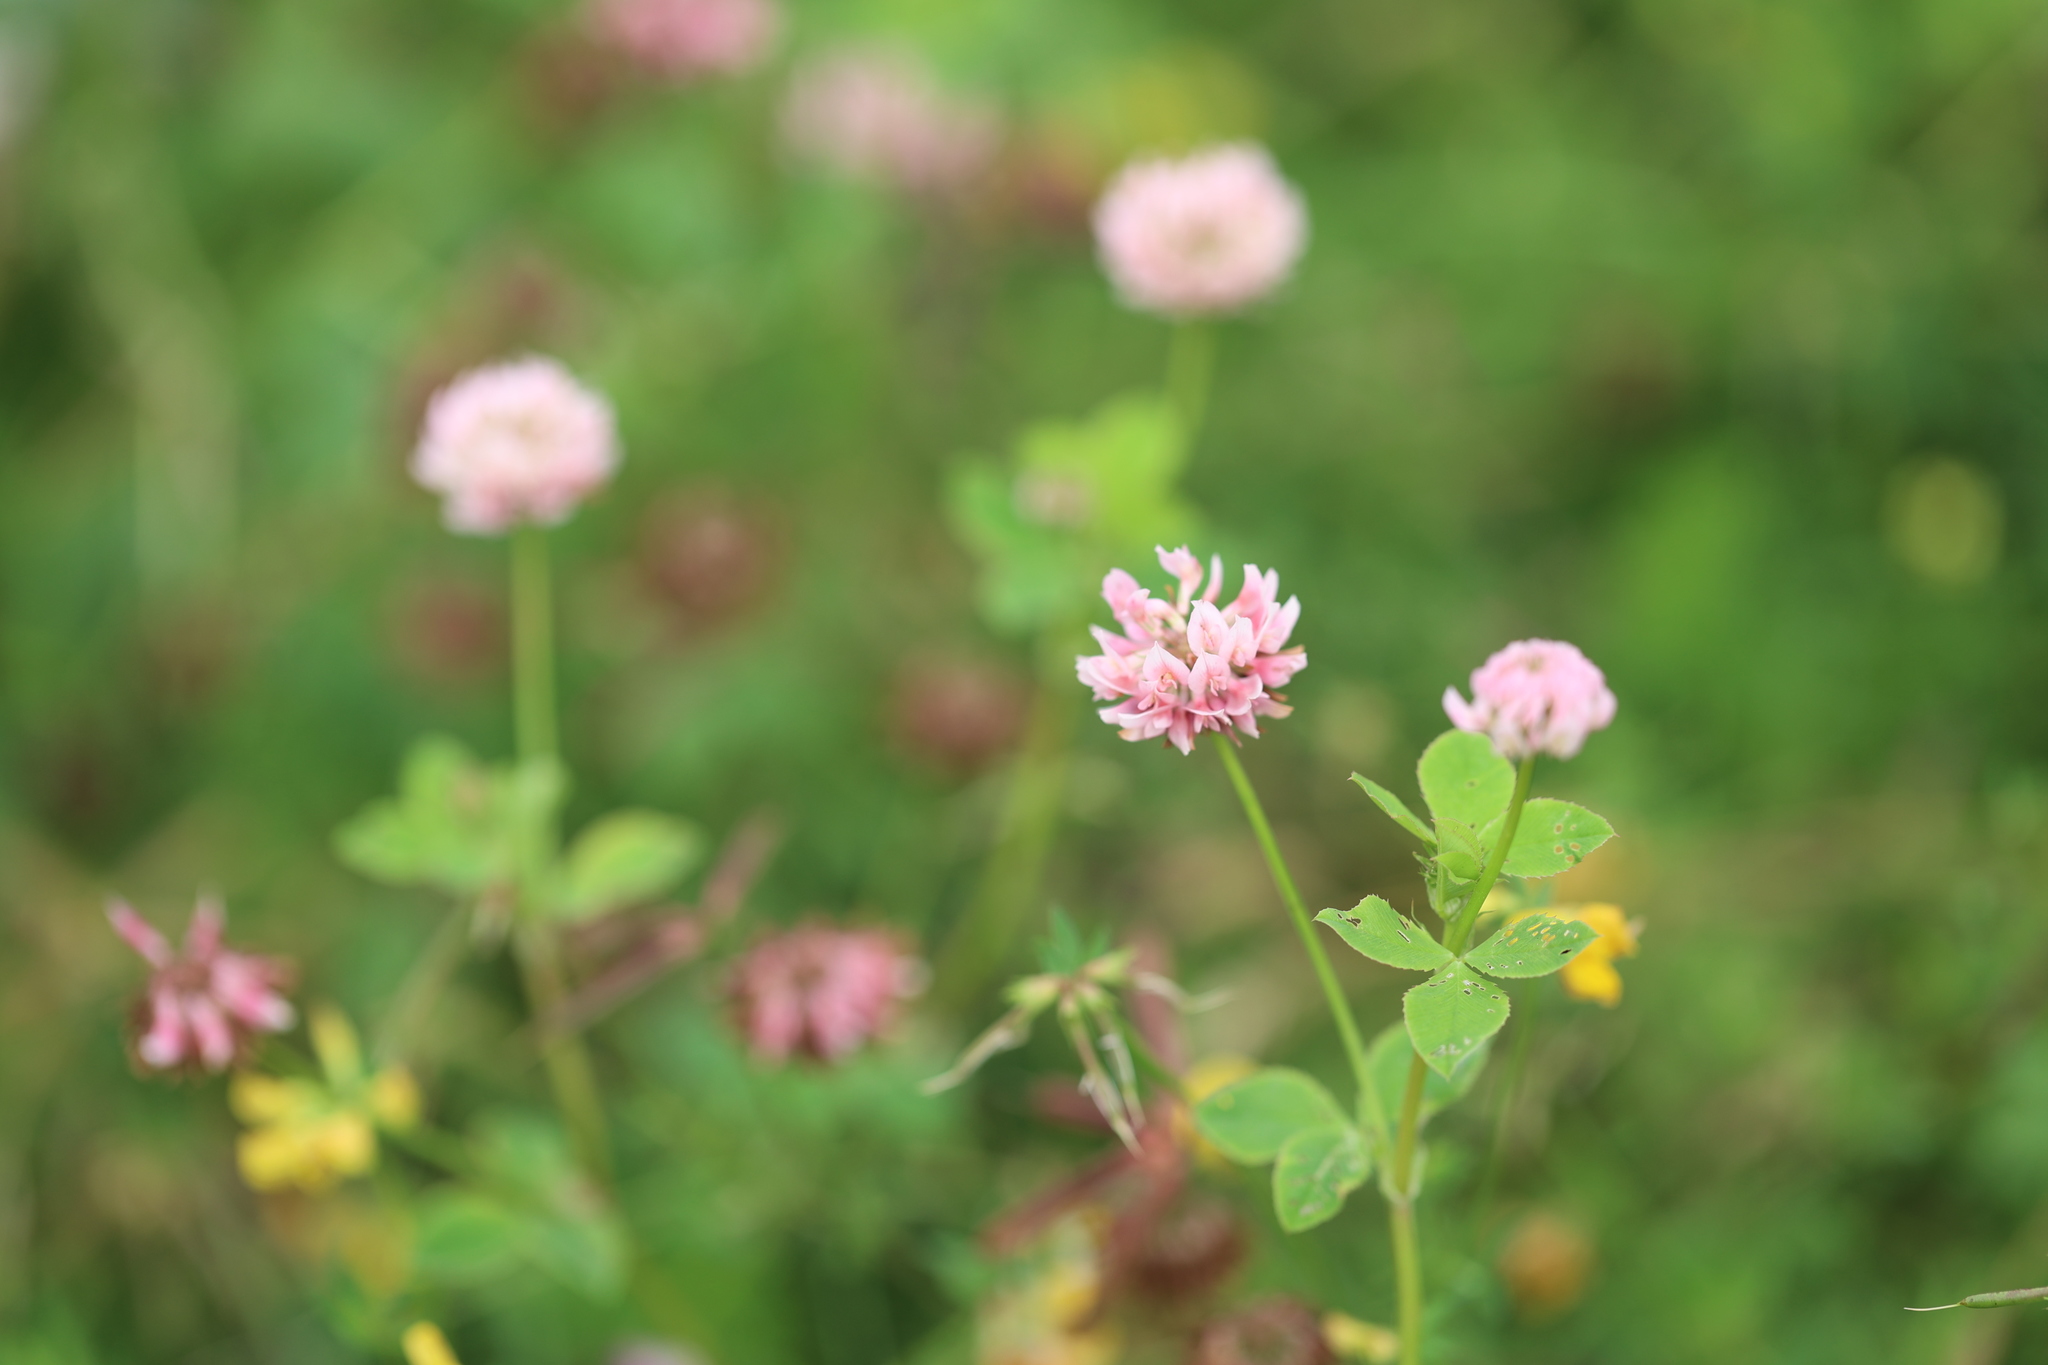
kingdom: Plantae
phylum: Tracheophyta
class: Magnoliopsida
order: Fabales
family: Fabaceae
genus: Trifolium
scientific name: Trifolium hybridum
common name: Alsike clover
